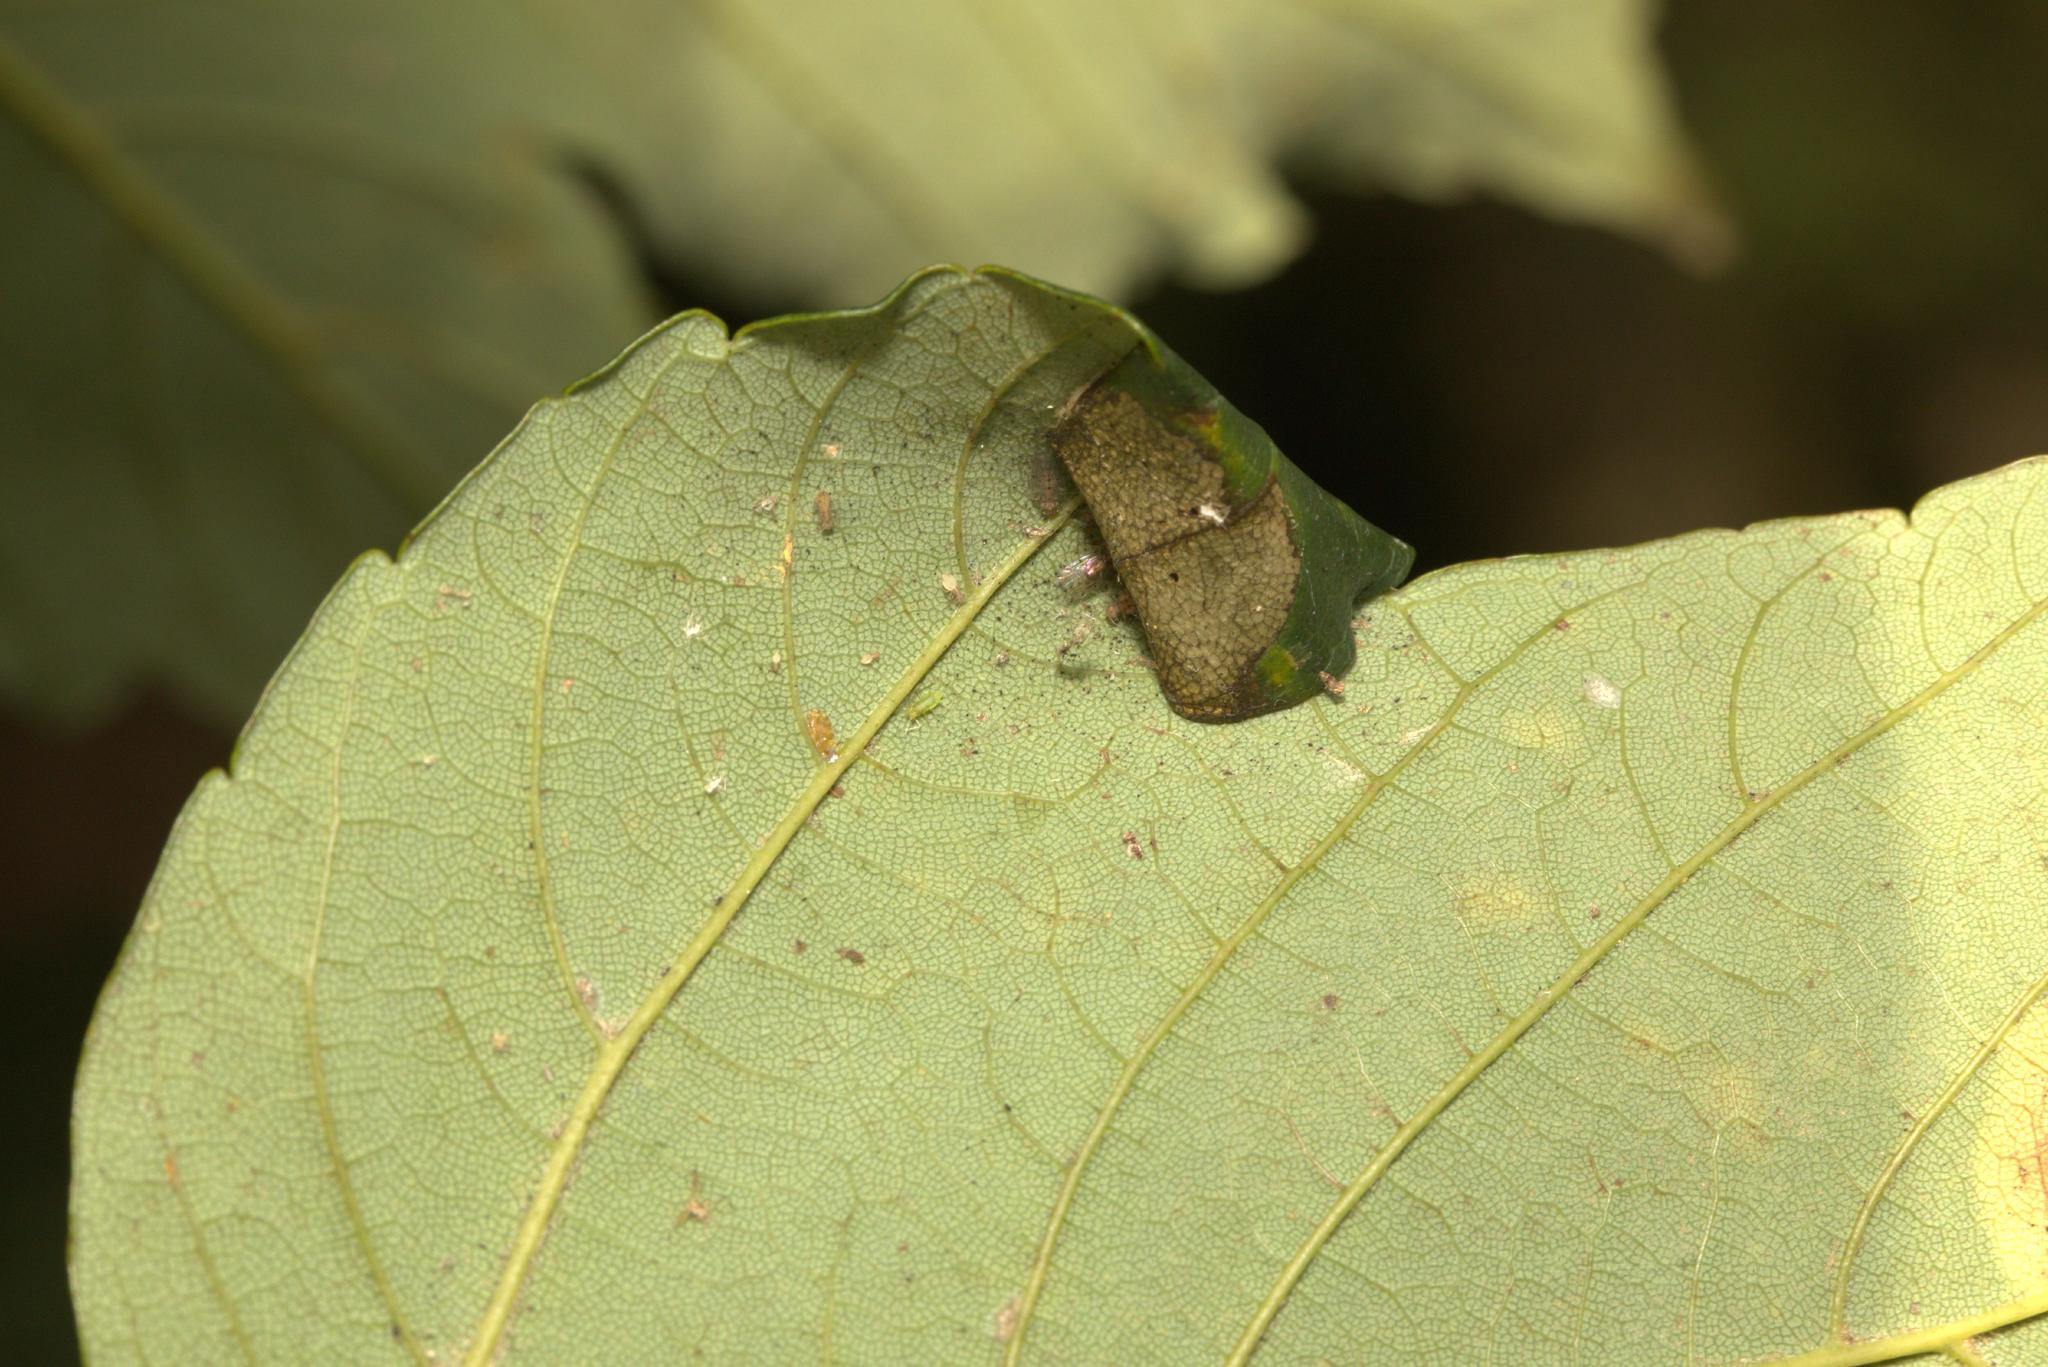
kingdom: Animalia
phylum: Arthropoda
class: Insecta
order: Lepidoptera
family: Gracillariidae
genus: Caloptilia
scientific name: Caloptilia rufipennella
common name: Small red slender
